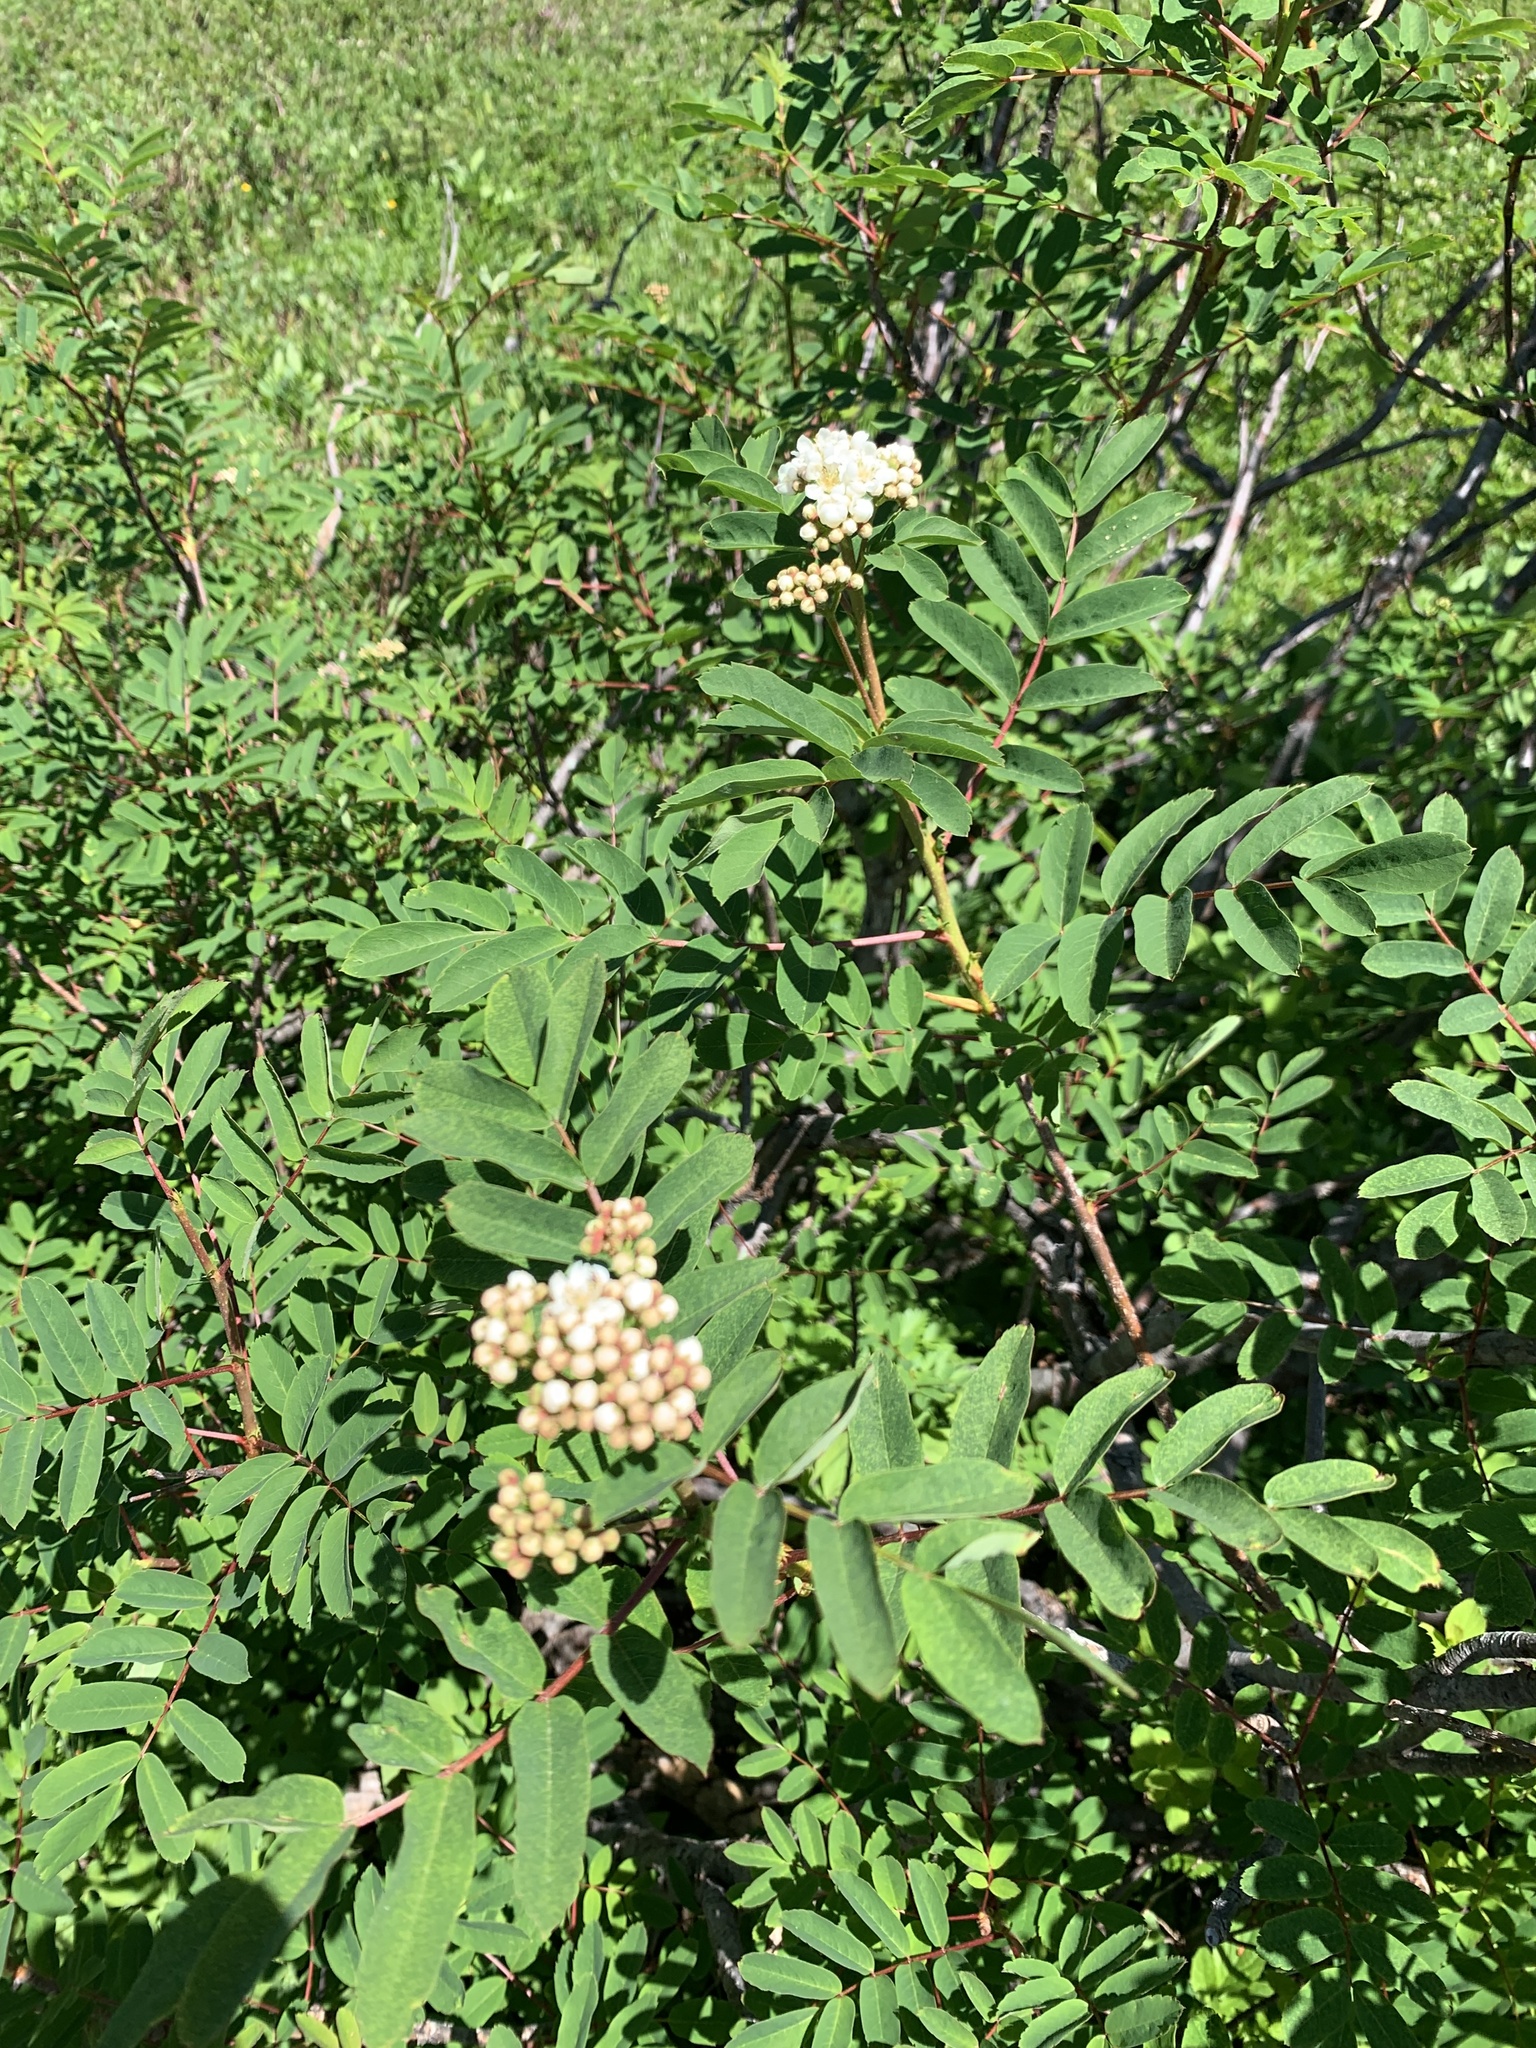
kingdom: Plantae
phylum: Tracheophyta
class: Magnoliopsida
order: Rosales
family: Rosaceae
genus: Sorbus
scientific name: Sorbus sitchensis
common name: Sitka mountain-ash
